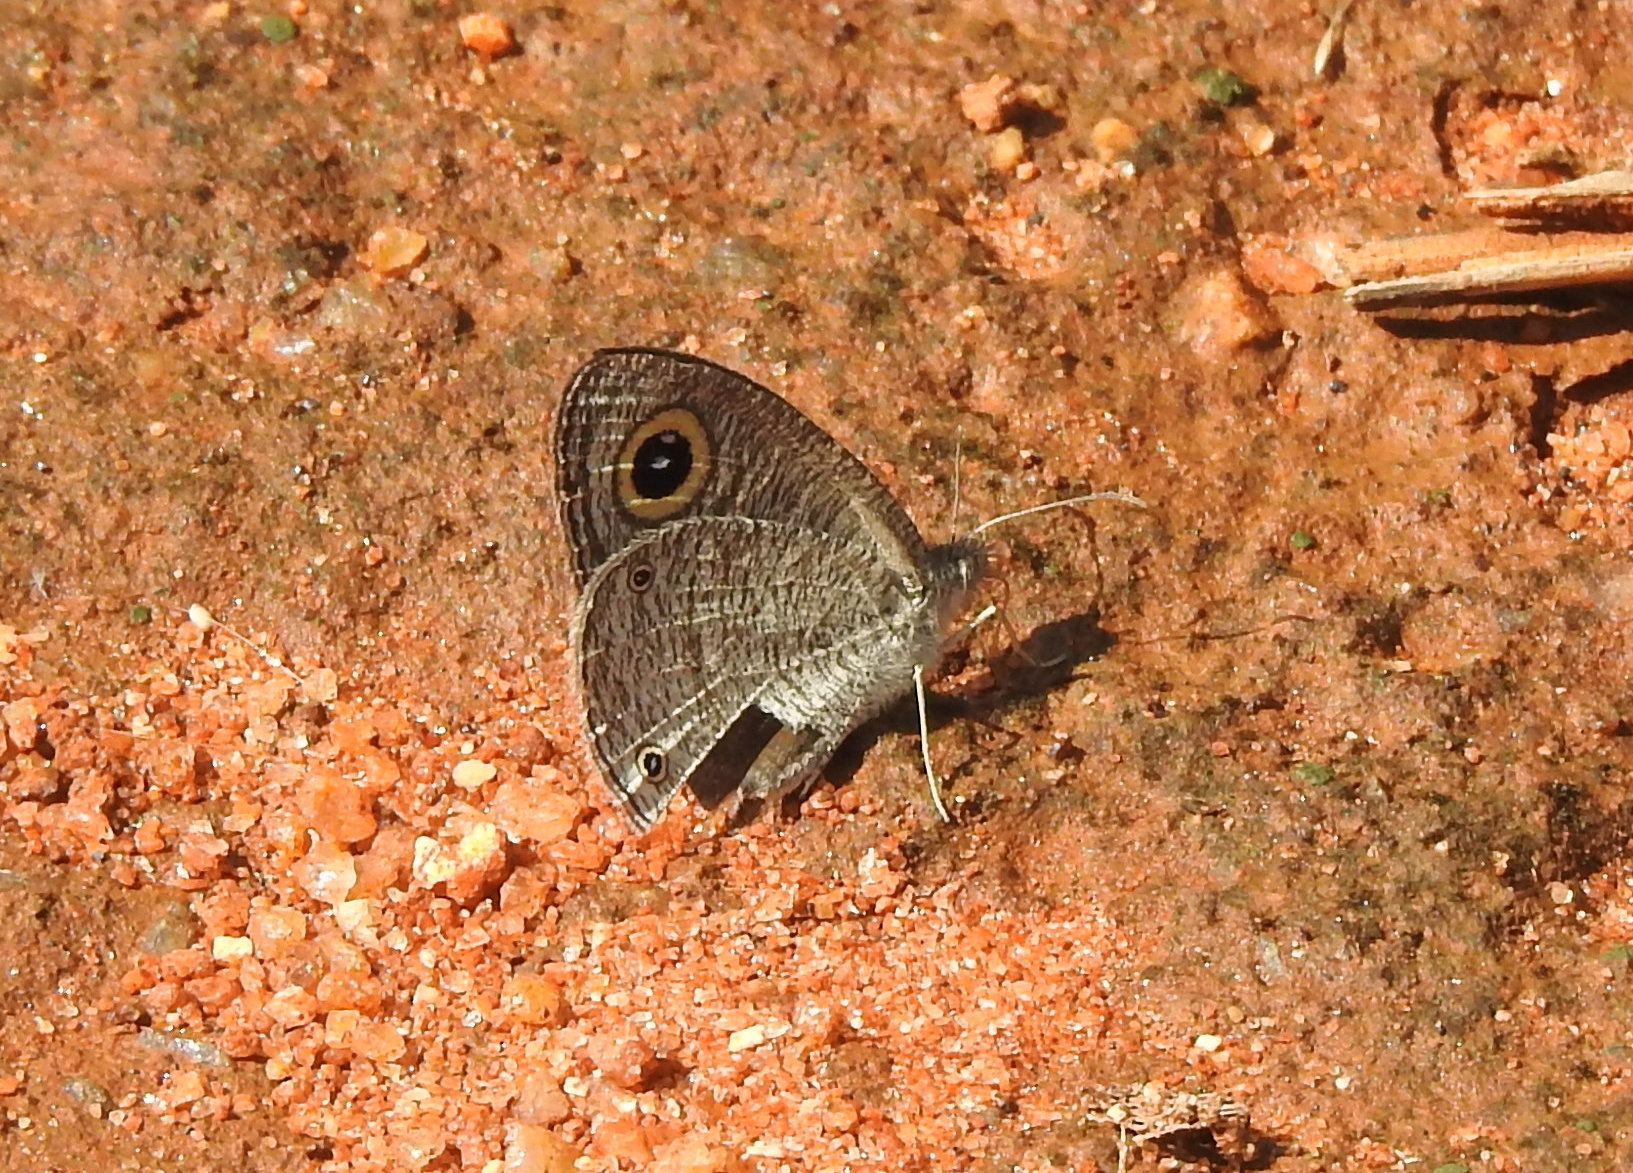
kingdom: Animalia
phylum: Arthropoda
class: Insecta
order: Lepidoptera
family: Nymphalidae
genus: Ypthima
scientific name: Ypthima asterope
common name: African ringlet
